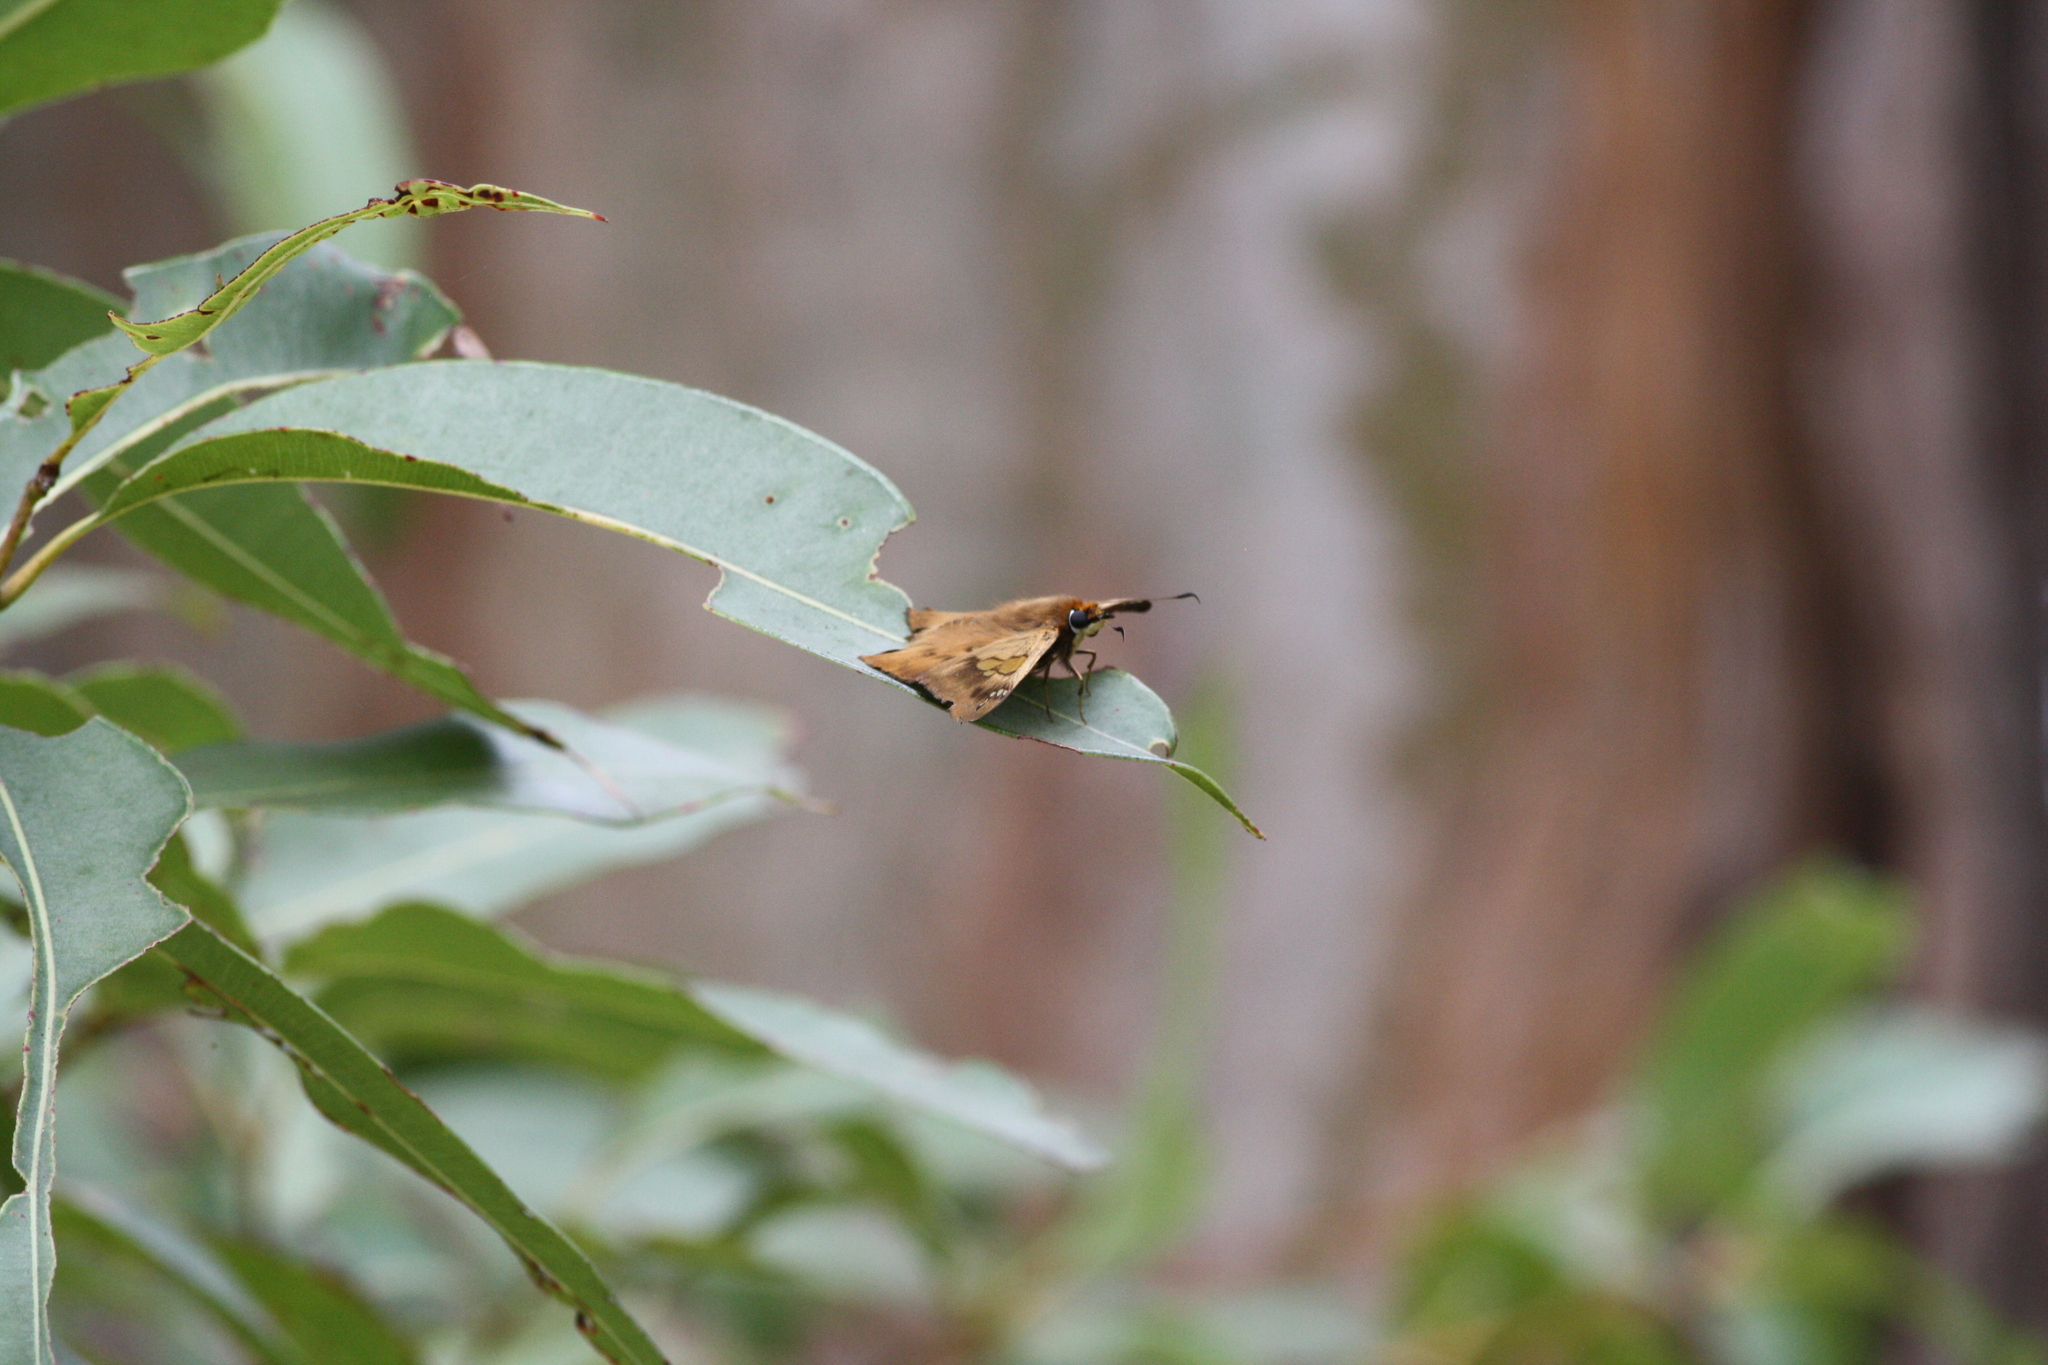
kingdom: Animalia
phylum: Arthropoda
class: Insecta
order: Lepidoptera
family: Hesperiidae
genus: Netrocoryne
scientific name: Netrocoryne repanda
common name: Bronze flat
